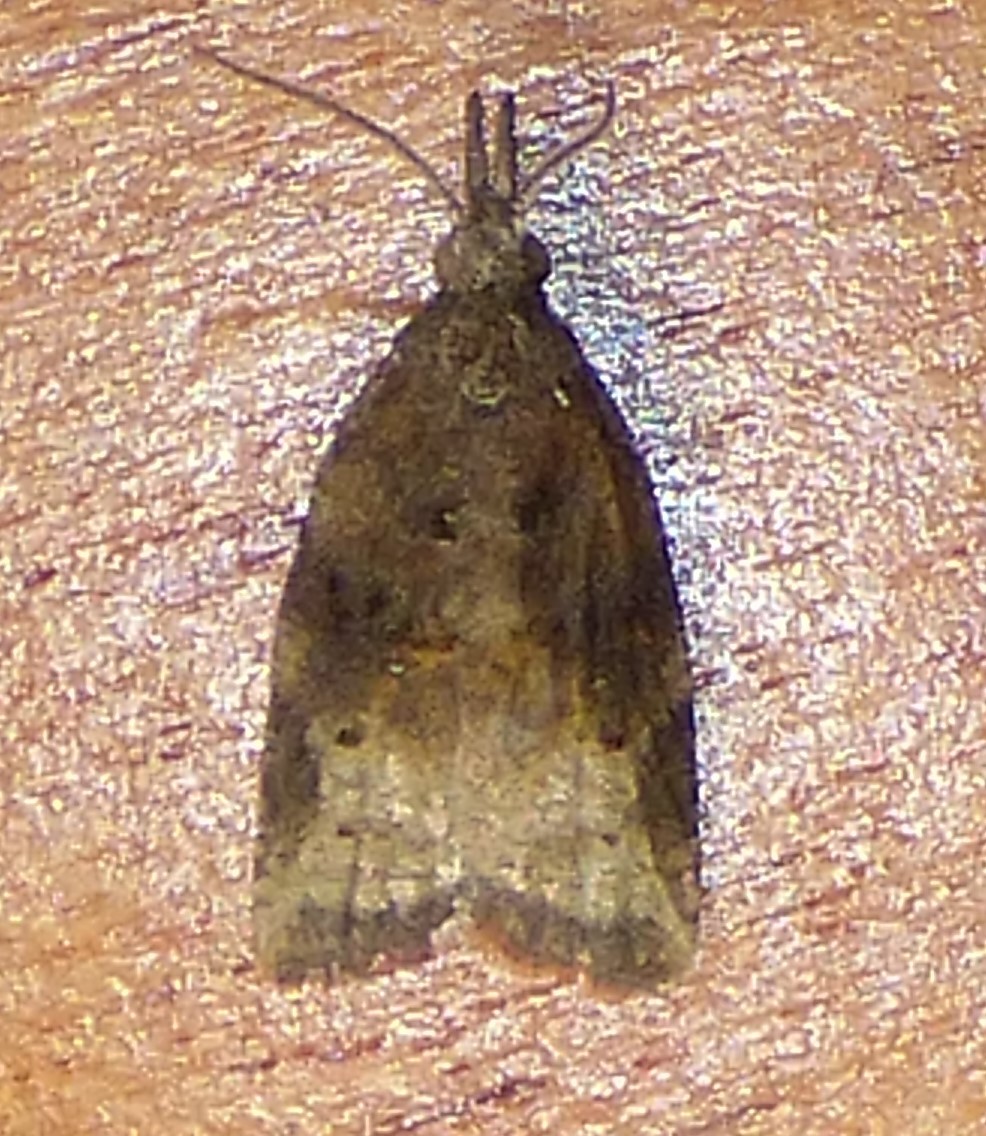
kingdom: Animalia
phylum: Arthropoda
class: Insecta
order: Lepidoptera
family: Tortricidae
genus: Platynota
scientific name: Platynota stultana
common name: Omnivorous leafroller
